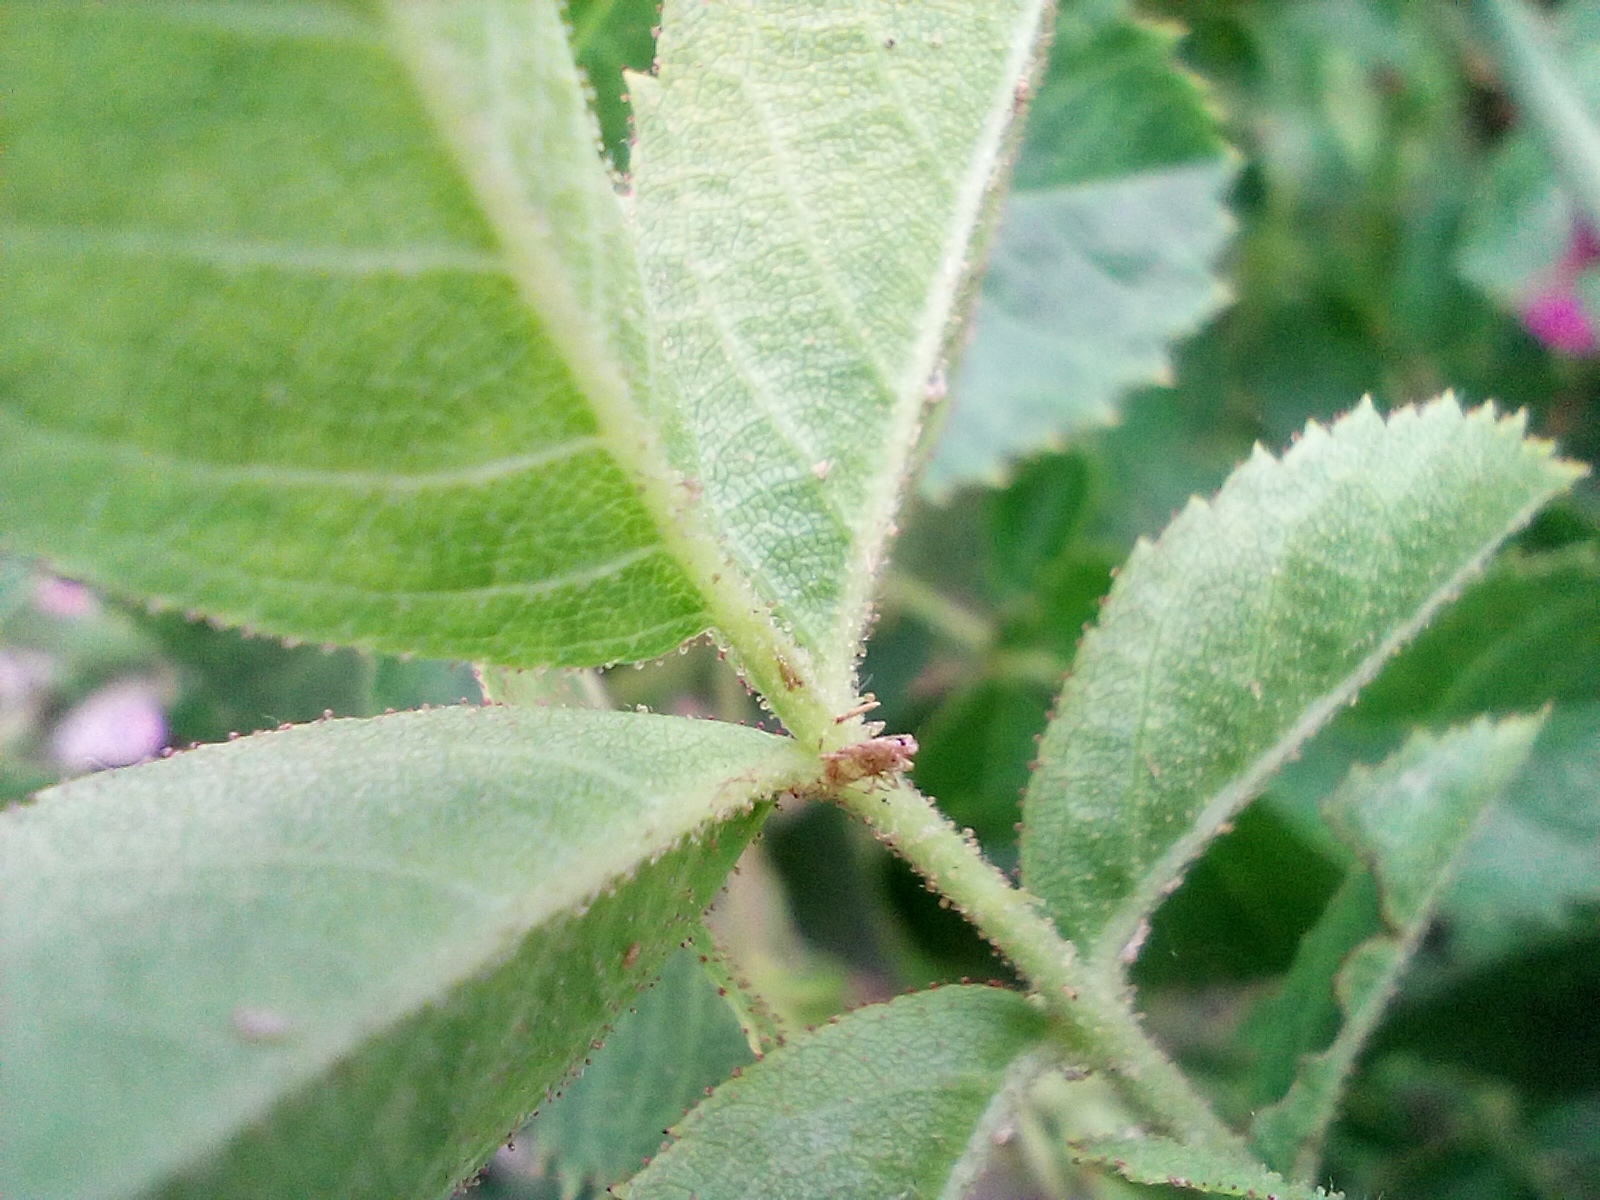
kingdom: Plantae
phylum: Tracheophyta
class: Magnoliopsida
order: Rosales
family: Rosaceae
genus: Rosa
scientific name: Rosa rubiginosa
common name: Sweet-briar
